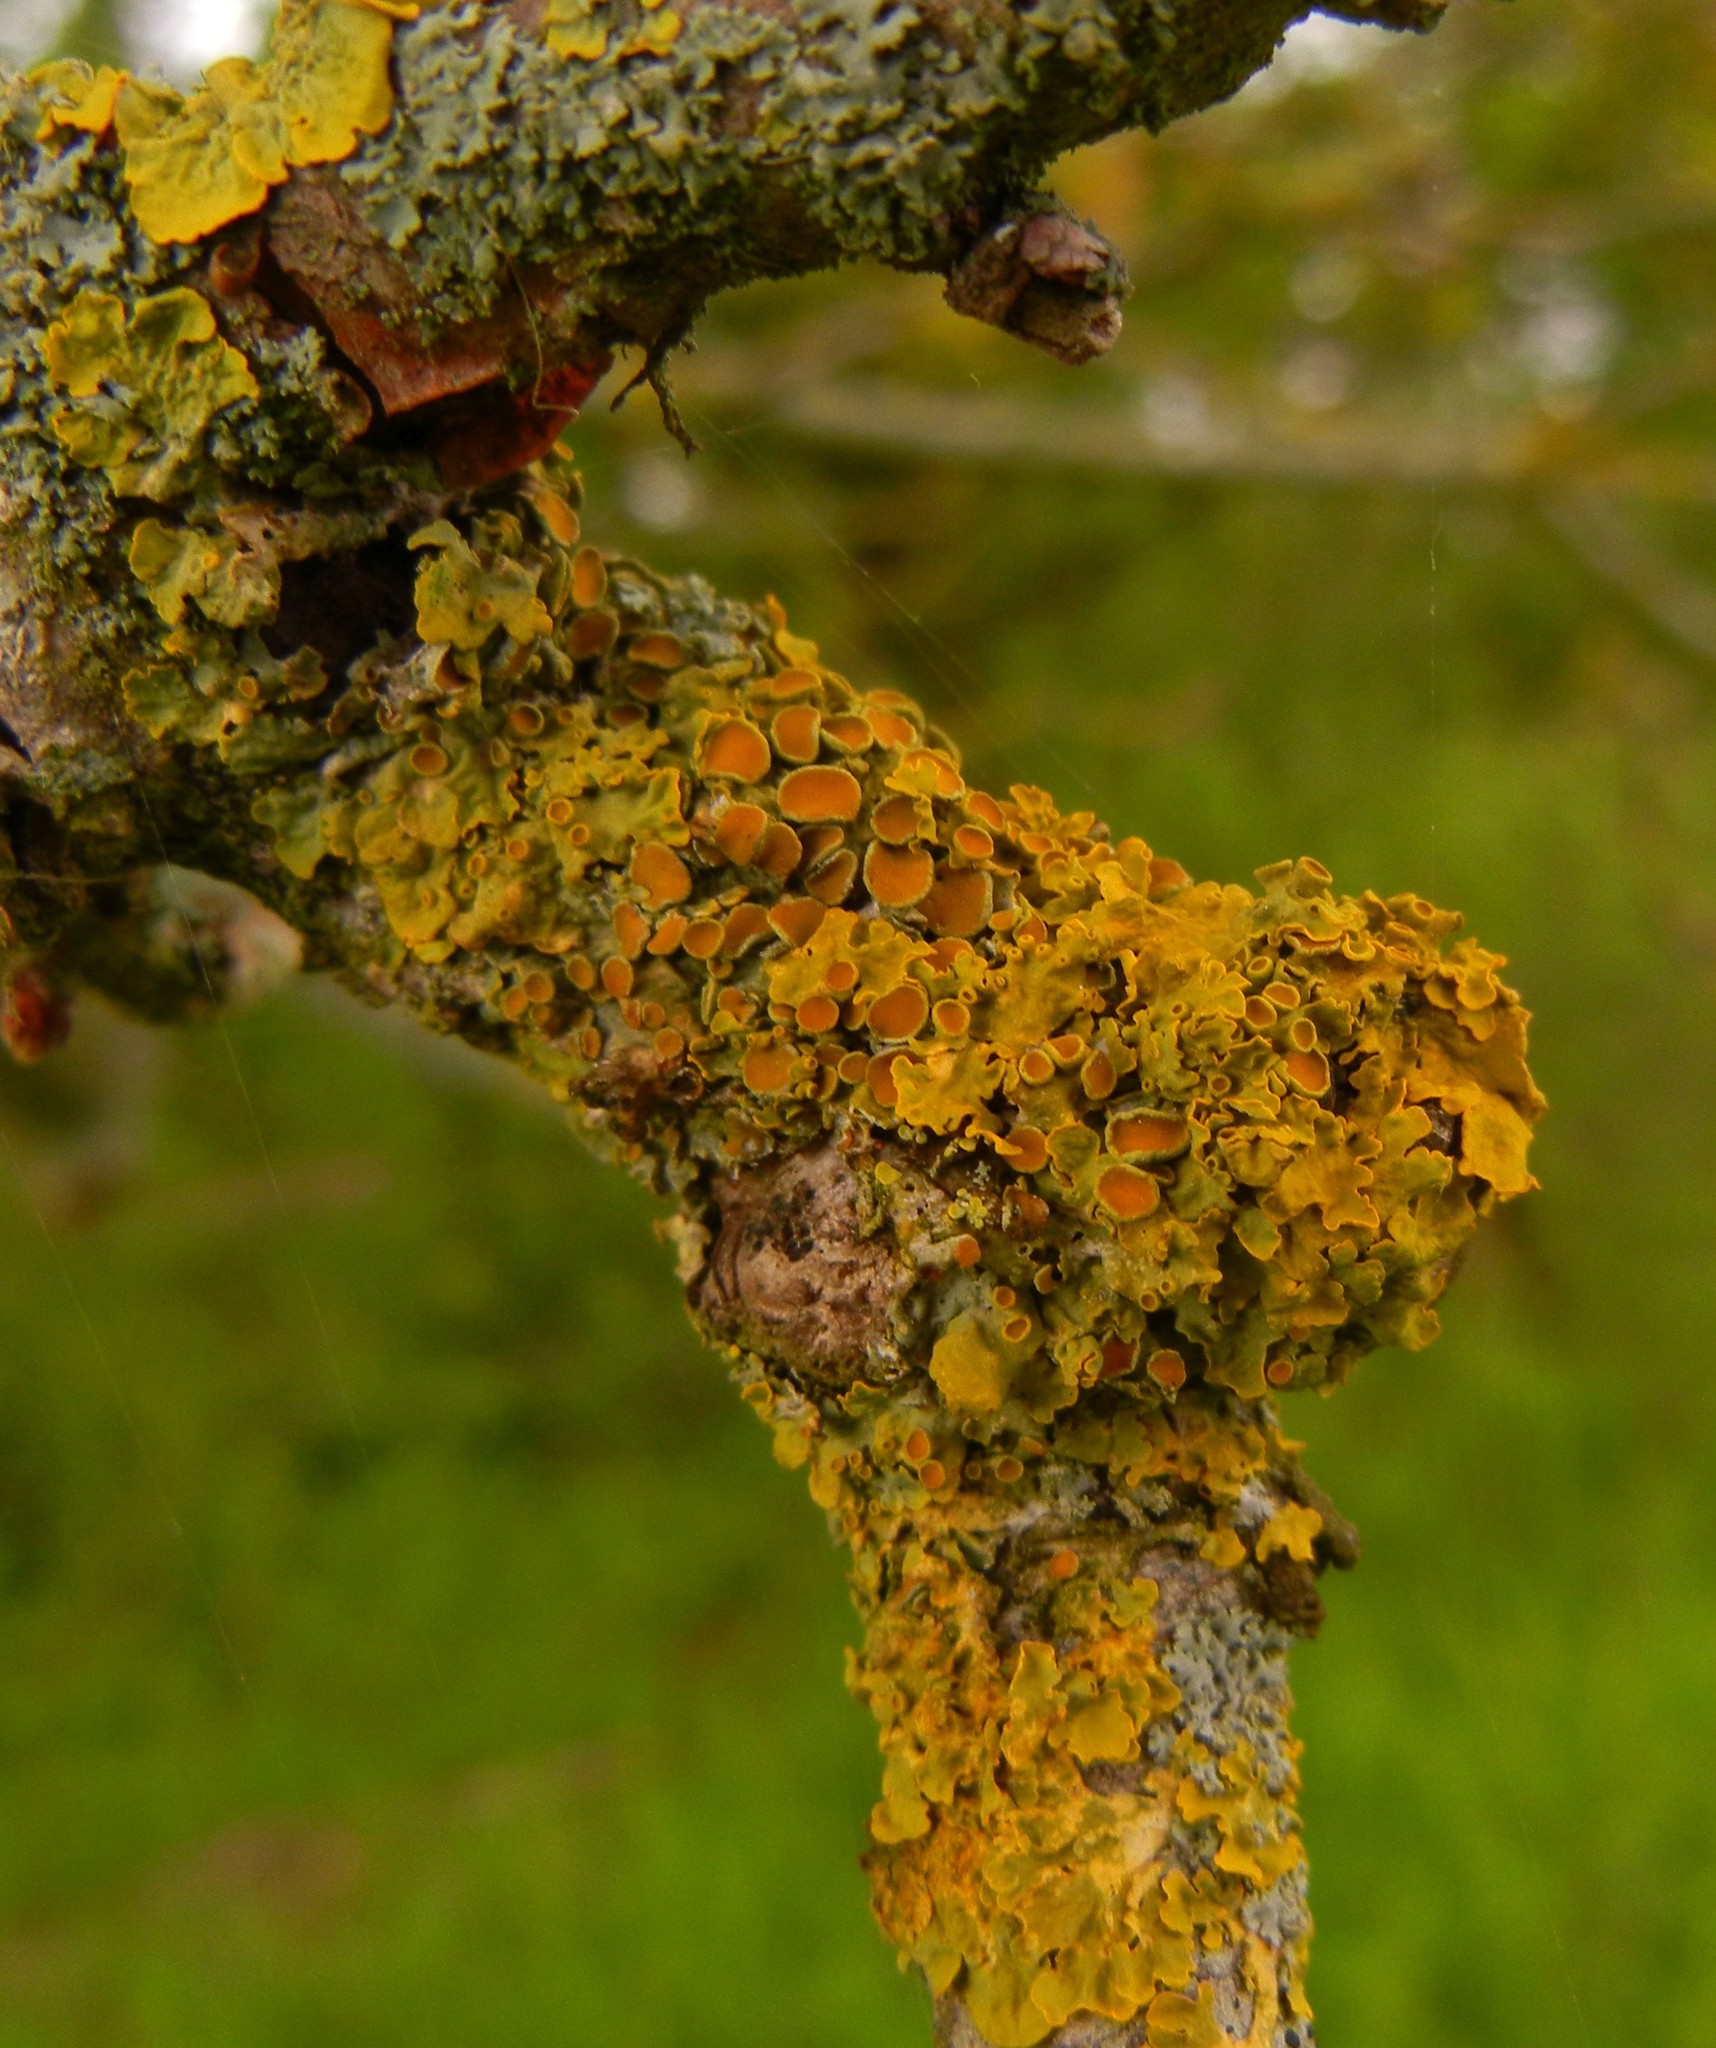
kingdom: Fungi
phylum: Ascomycota
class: Lecanoromycetes
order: Teloschistales
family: Teloschistaceae
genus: Xanthoria
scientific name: Xanthoria parietina
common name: Common orange lichen
